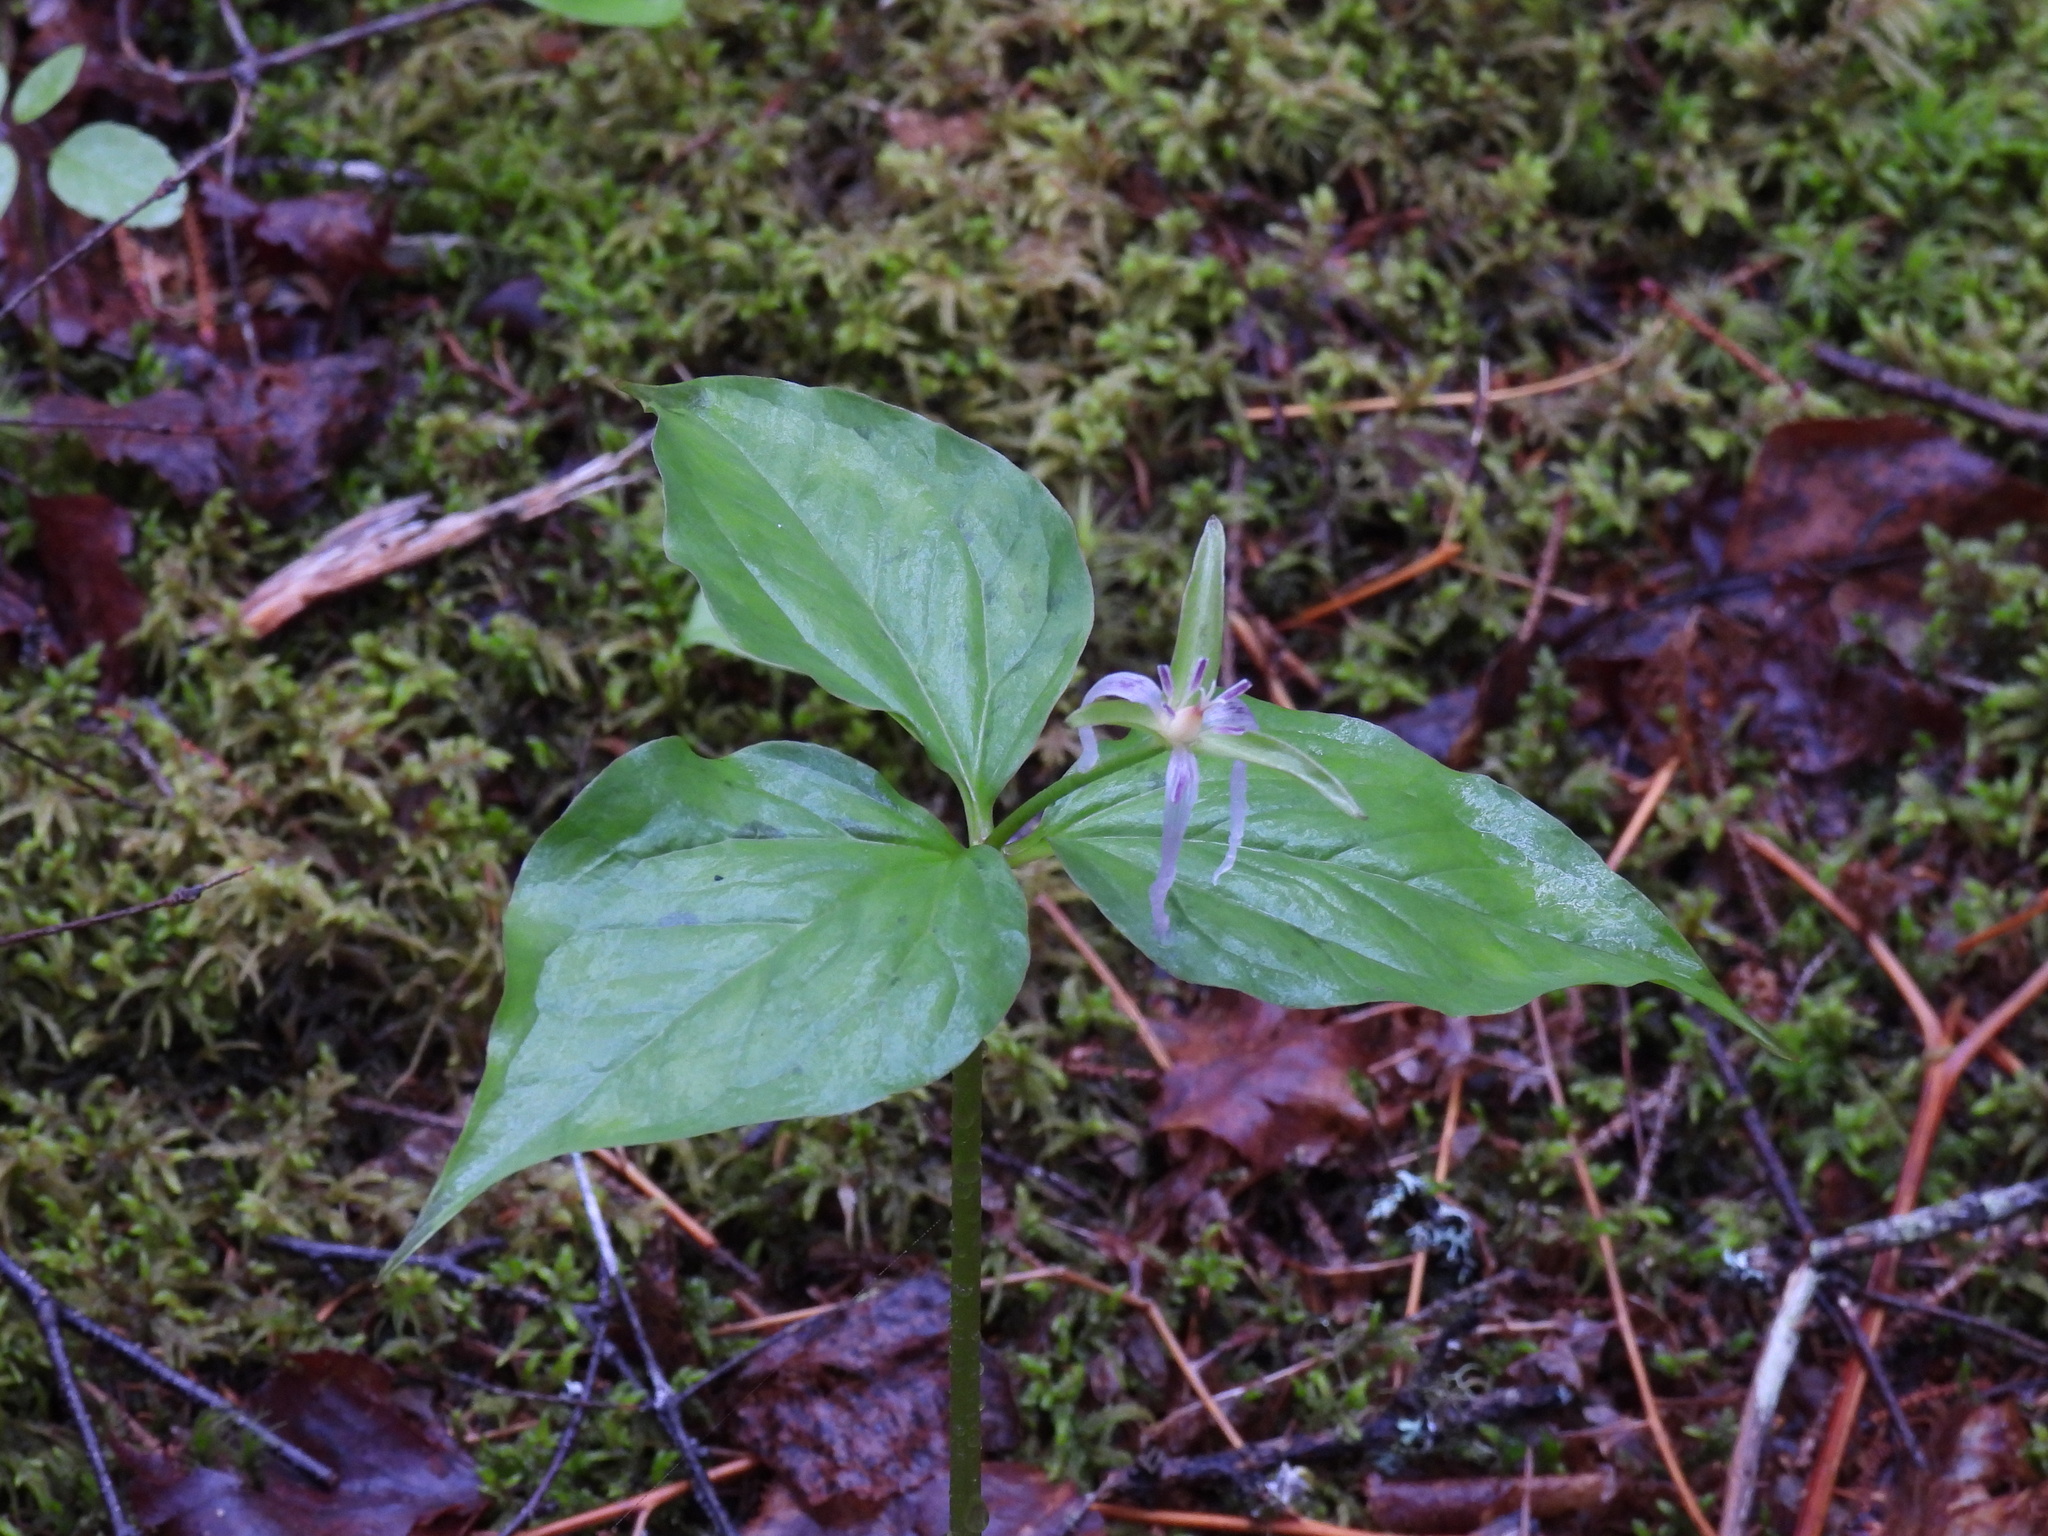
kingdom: Plantae
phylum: Tracheophyta
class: Liliopsida
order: Liliales
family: Melanthiaceae
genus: Trillium
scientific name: Trillium undulatum
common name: Paint trillium
